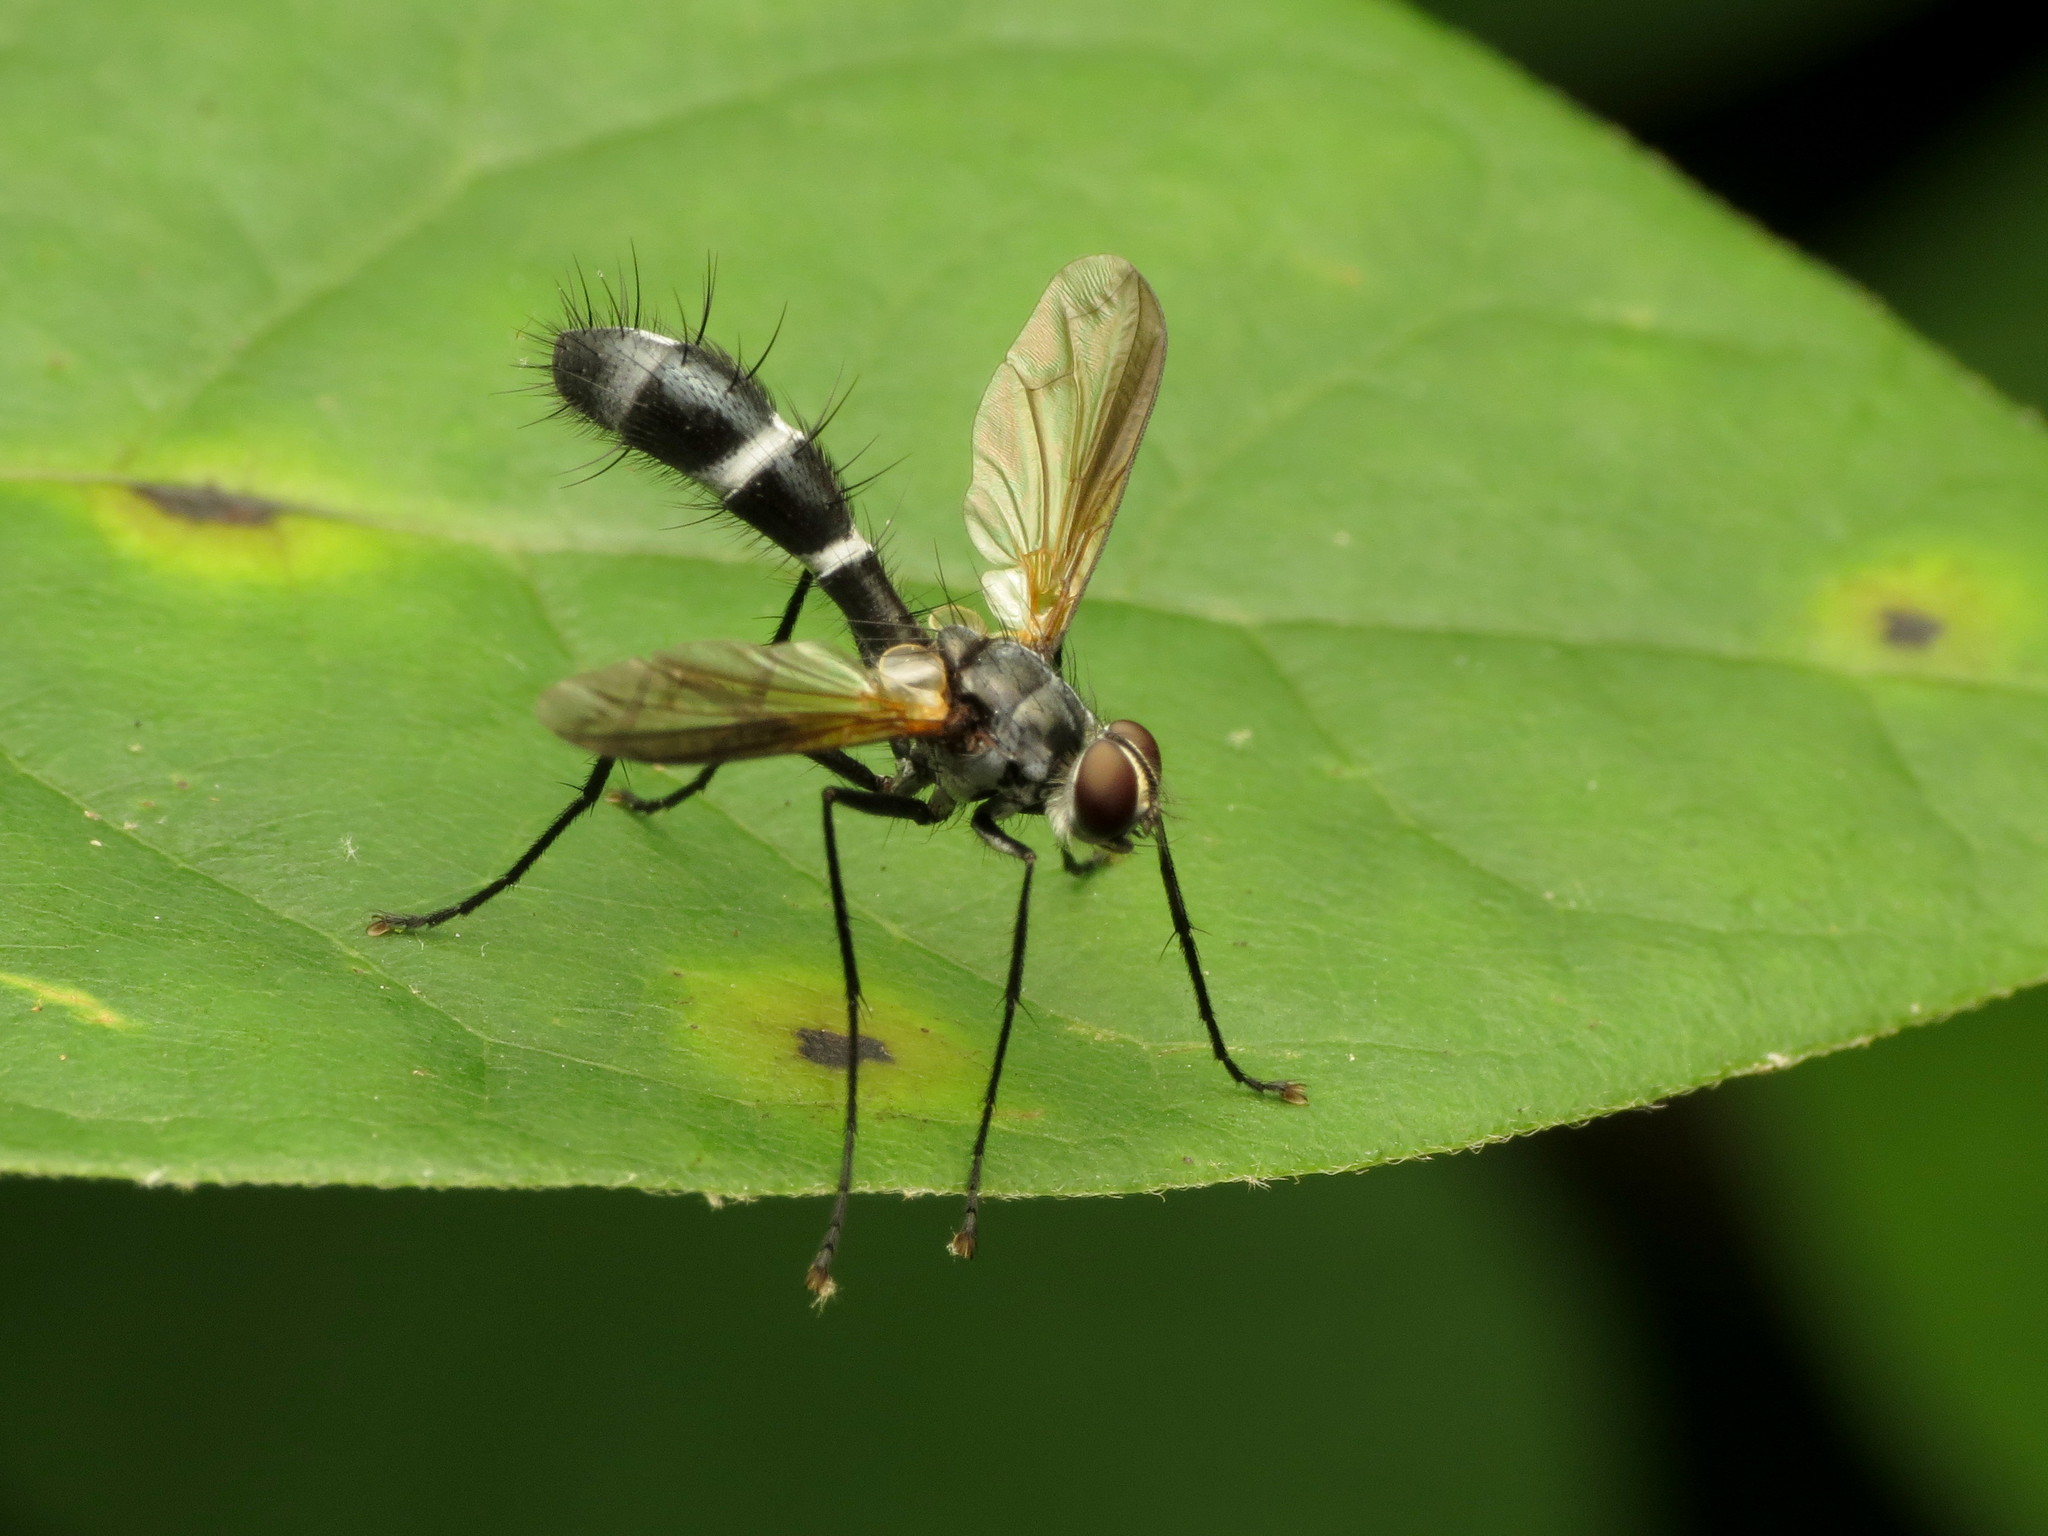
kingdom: Animalia
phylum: Arthropoda
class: Insecta
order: Diptera
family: Tachinidae
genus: Cordyligaster
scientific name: Cordyligaster septentrionalis
